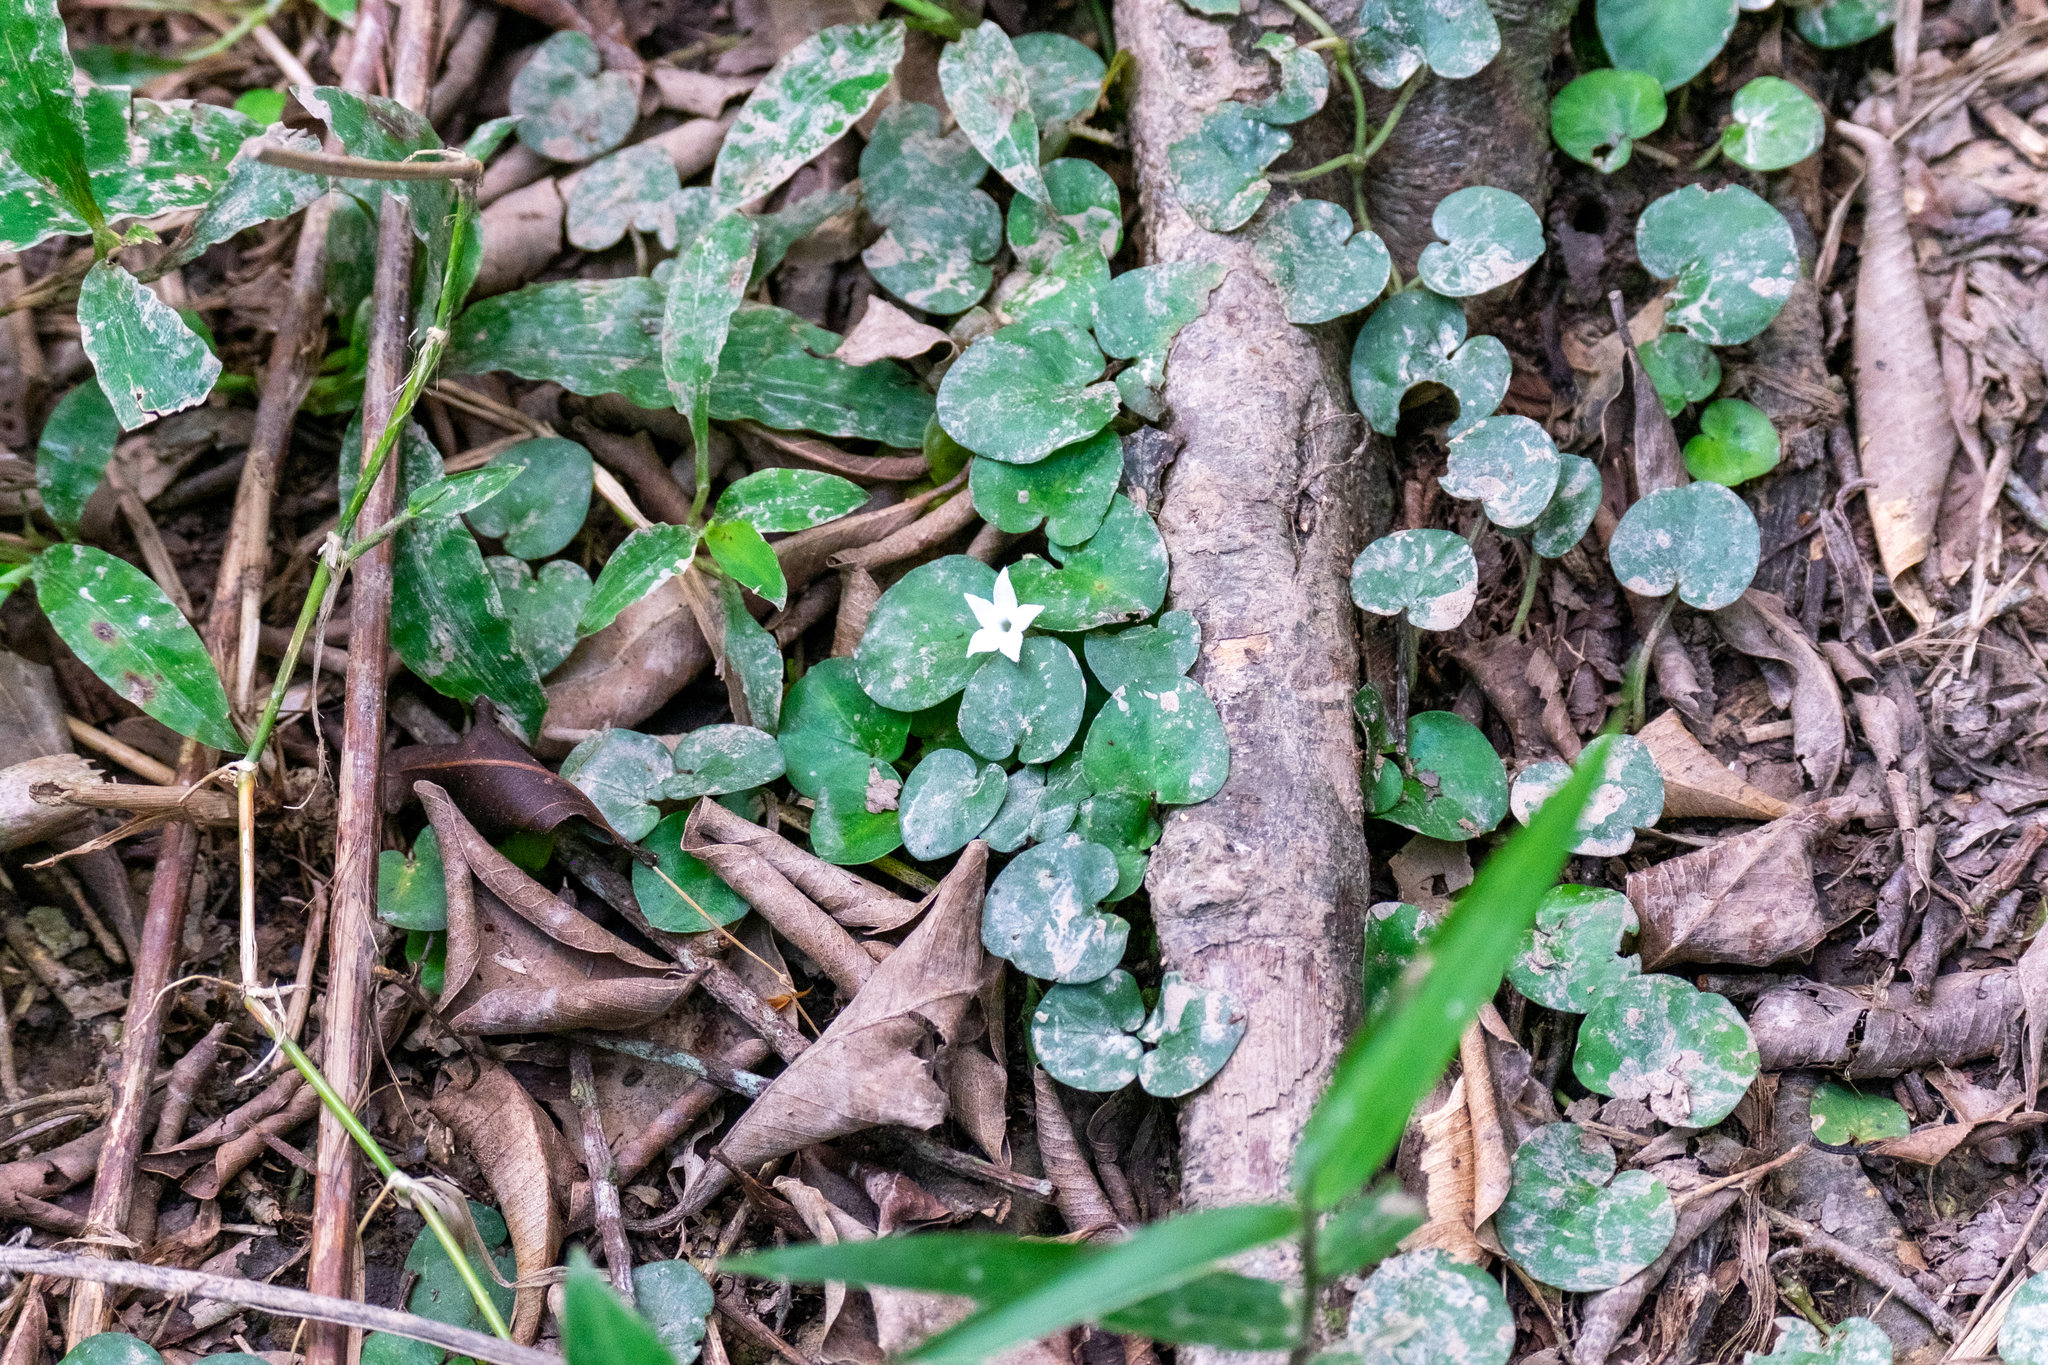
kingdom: Plantae
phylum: Tracheophyta
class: Magnoliopsida
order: Gentianales
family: Rubiaceae
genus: Geophila
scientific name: Geophila herbacea
